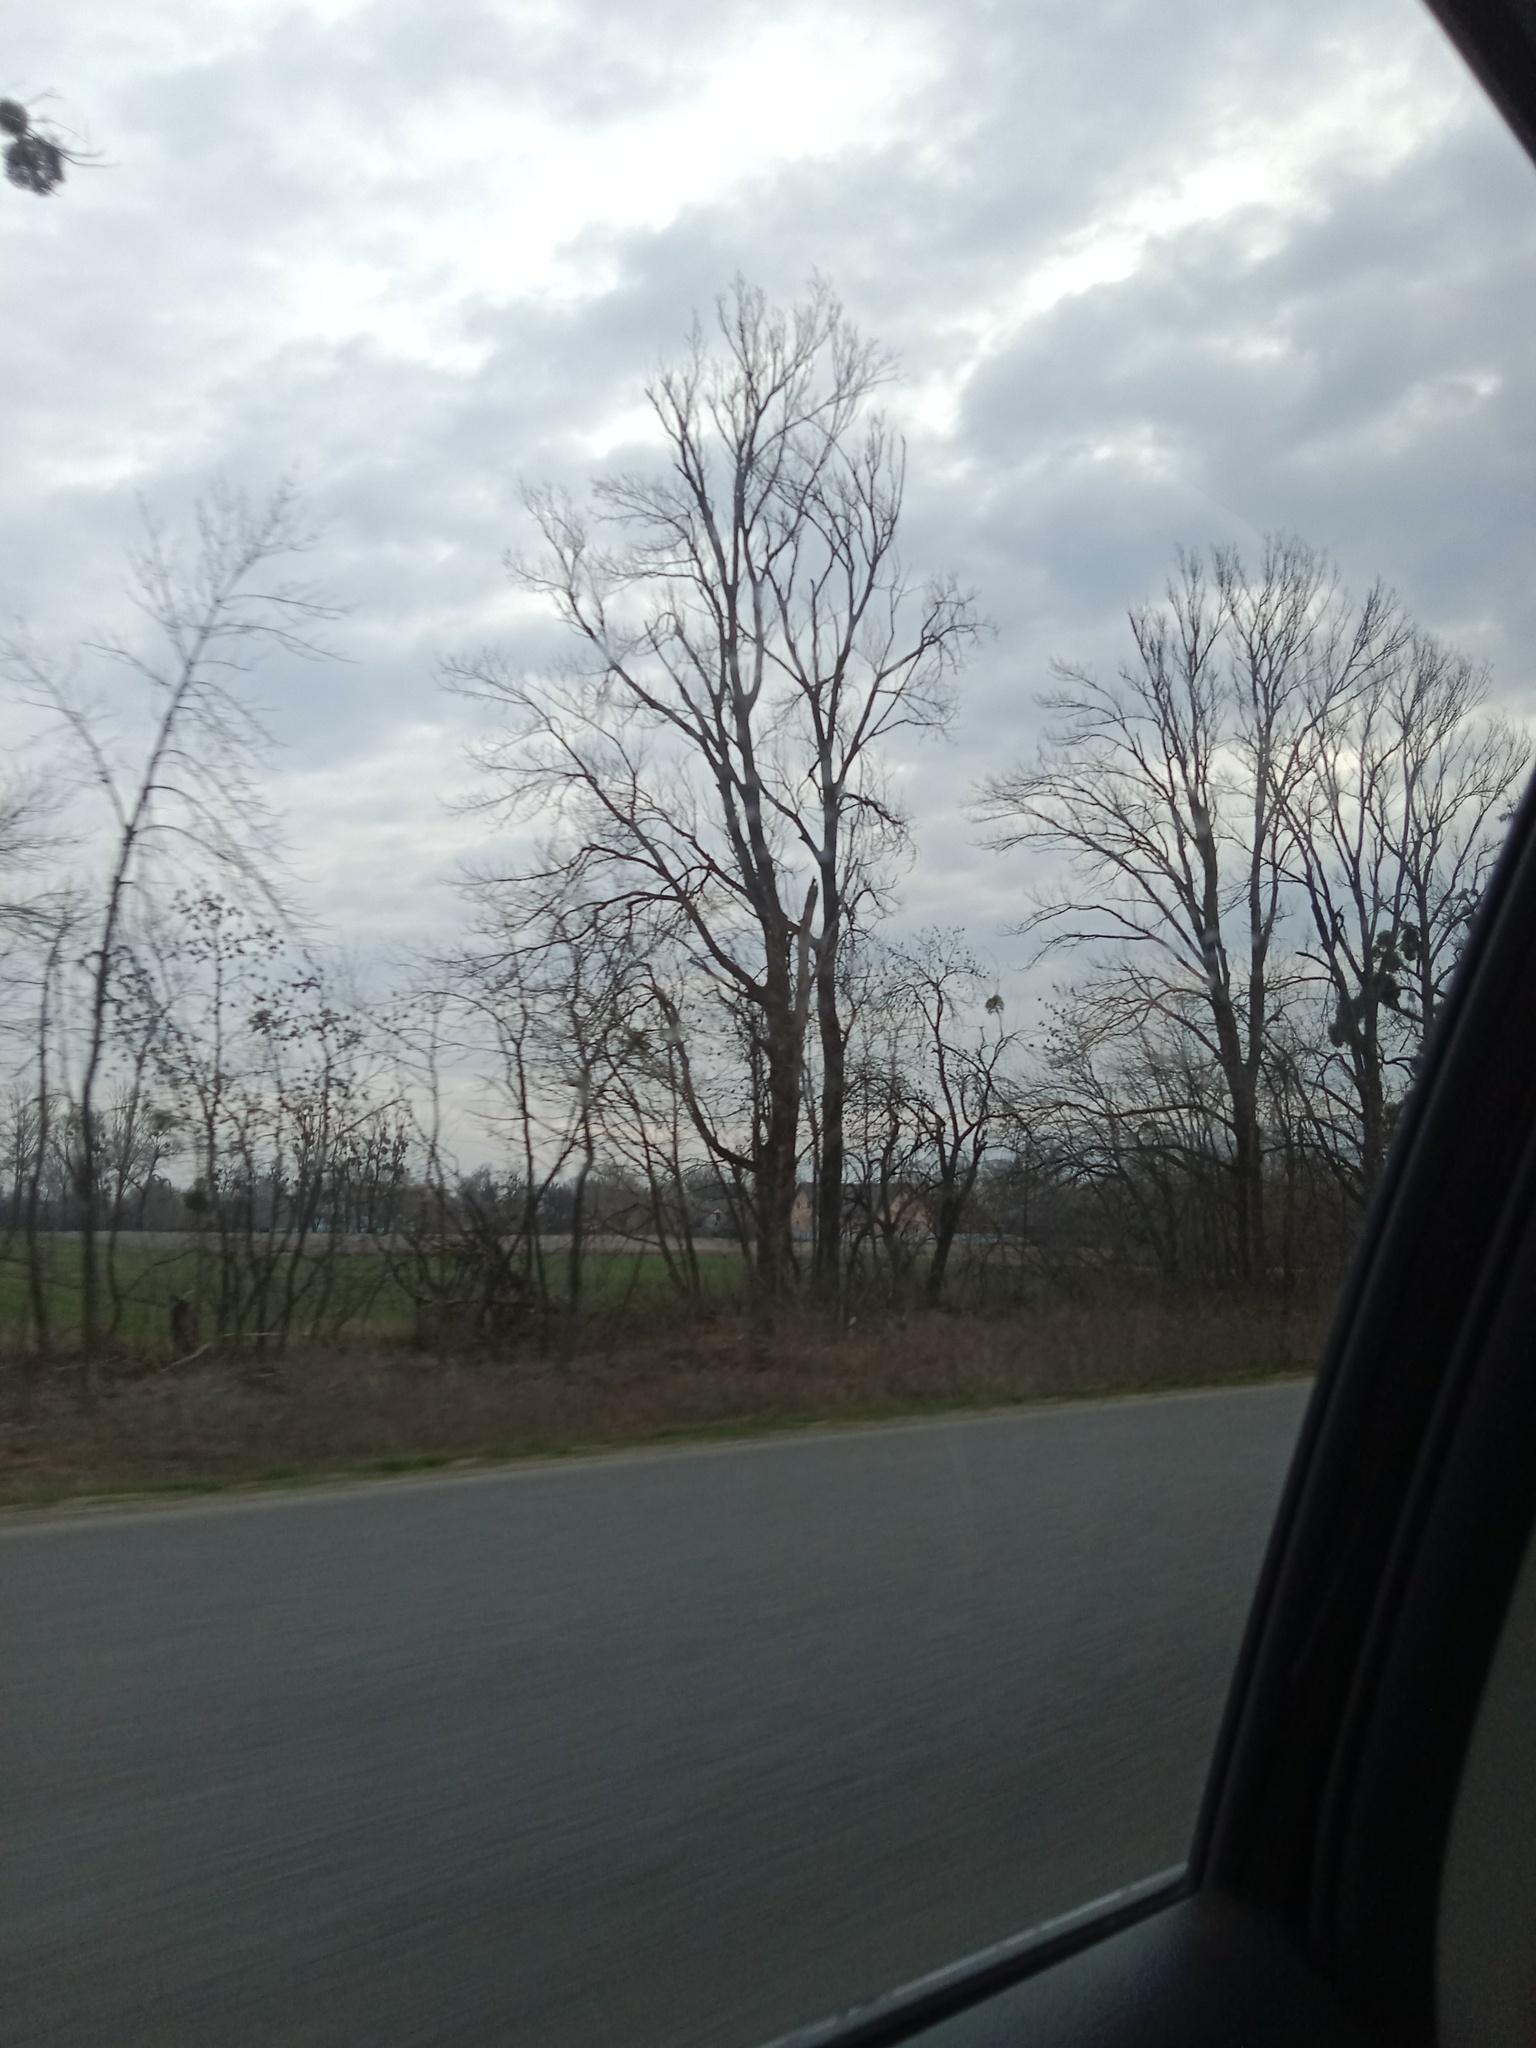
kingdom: Plantae
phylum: Tracheophyta
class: Magnoliopsida
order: Santalales
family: Viscaceae
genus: Viscum
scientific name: Viscum album
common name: Mistletoe
